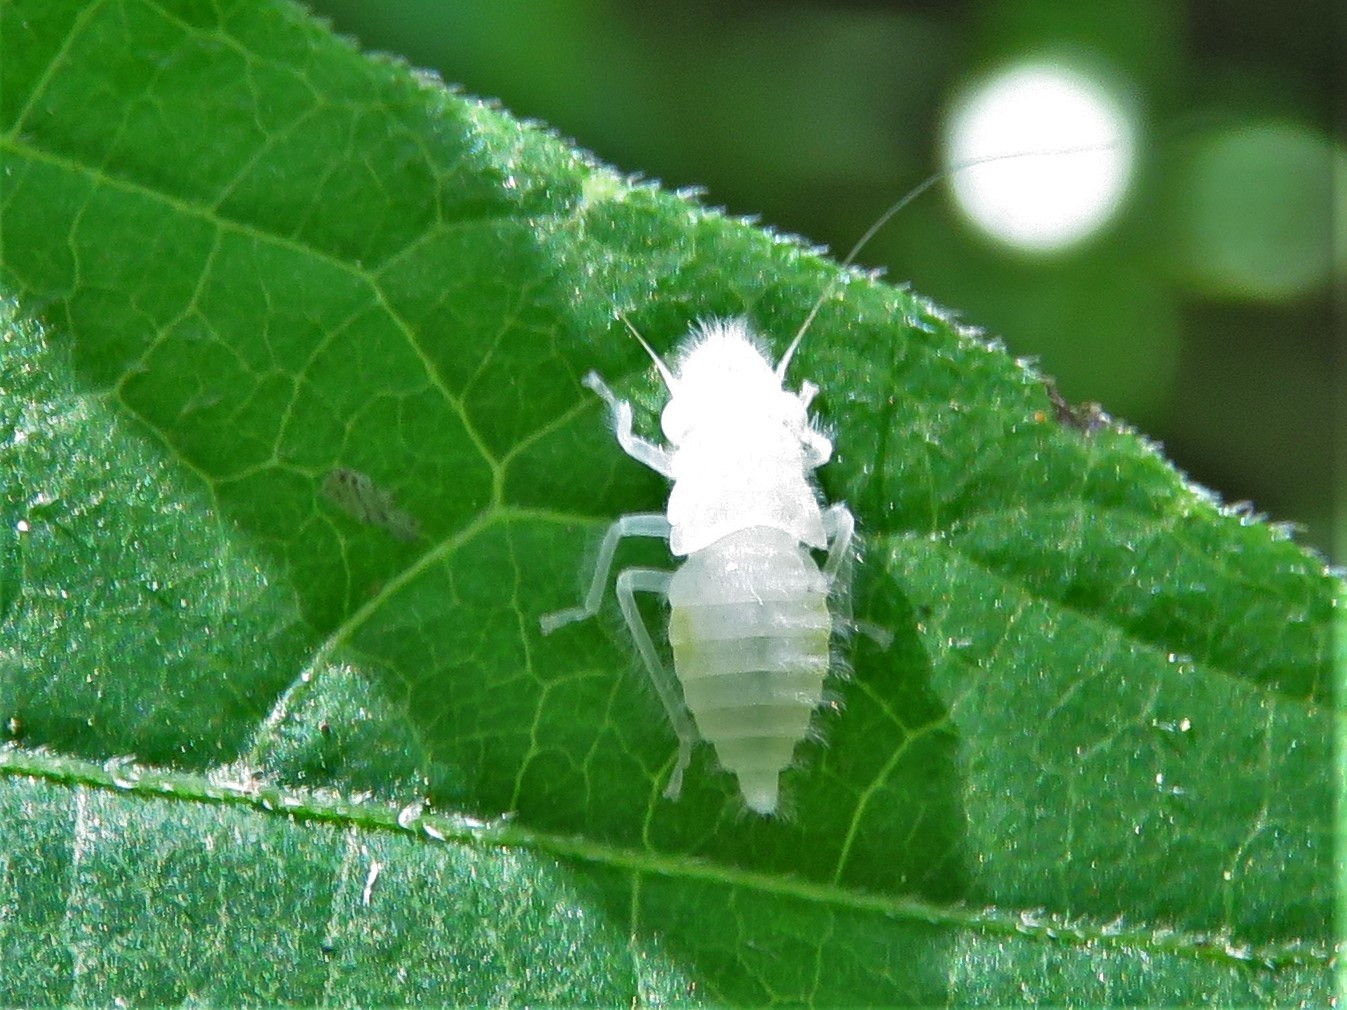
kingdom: Animalia
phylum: Arthropoda
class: Insecta
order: Hemiptera
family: Cicadellidae
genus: Paraulacizes
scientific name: Paraulacizes irrorata
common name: Speckled sharpshooter
